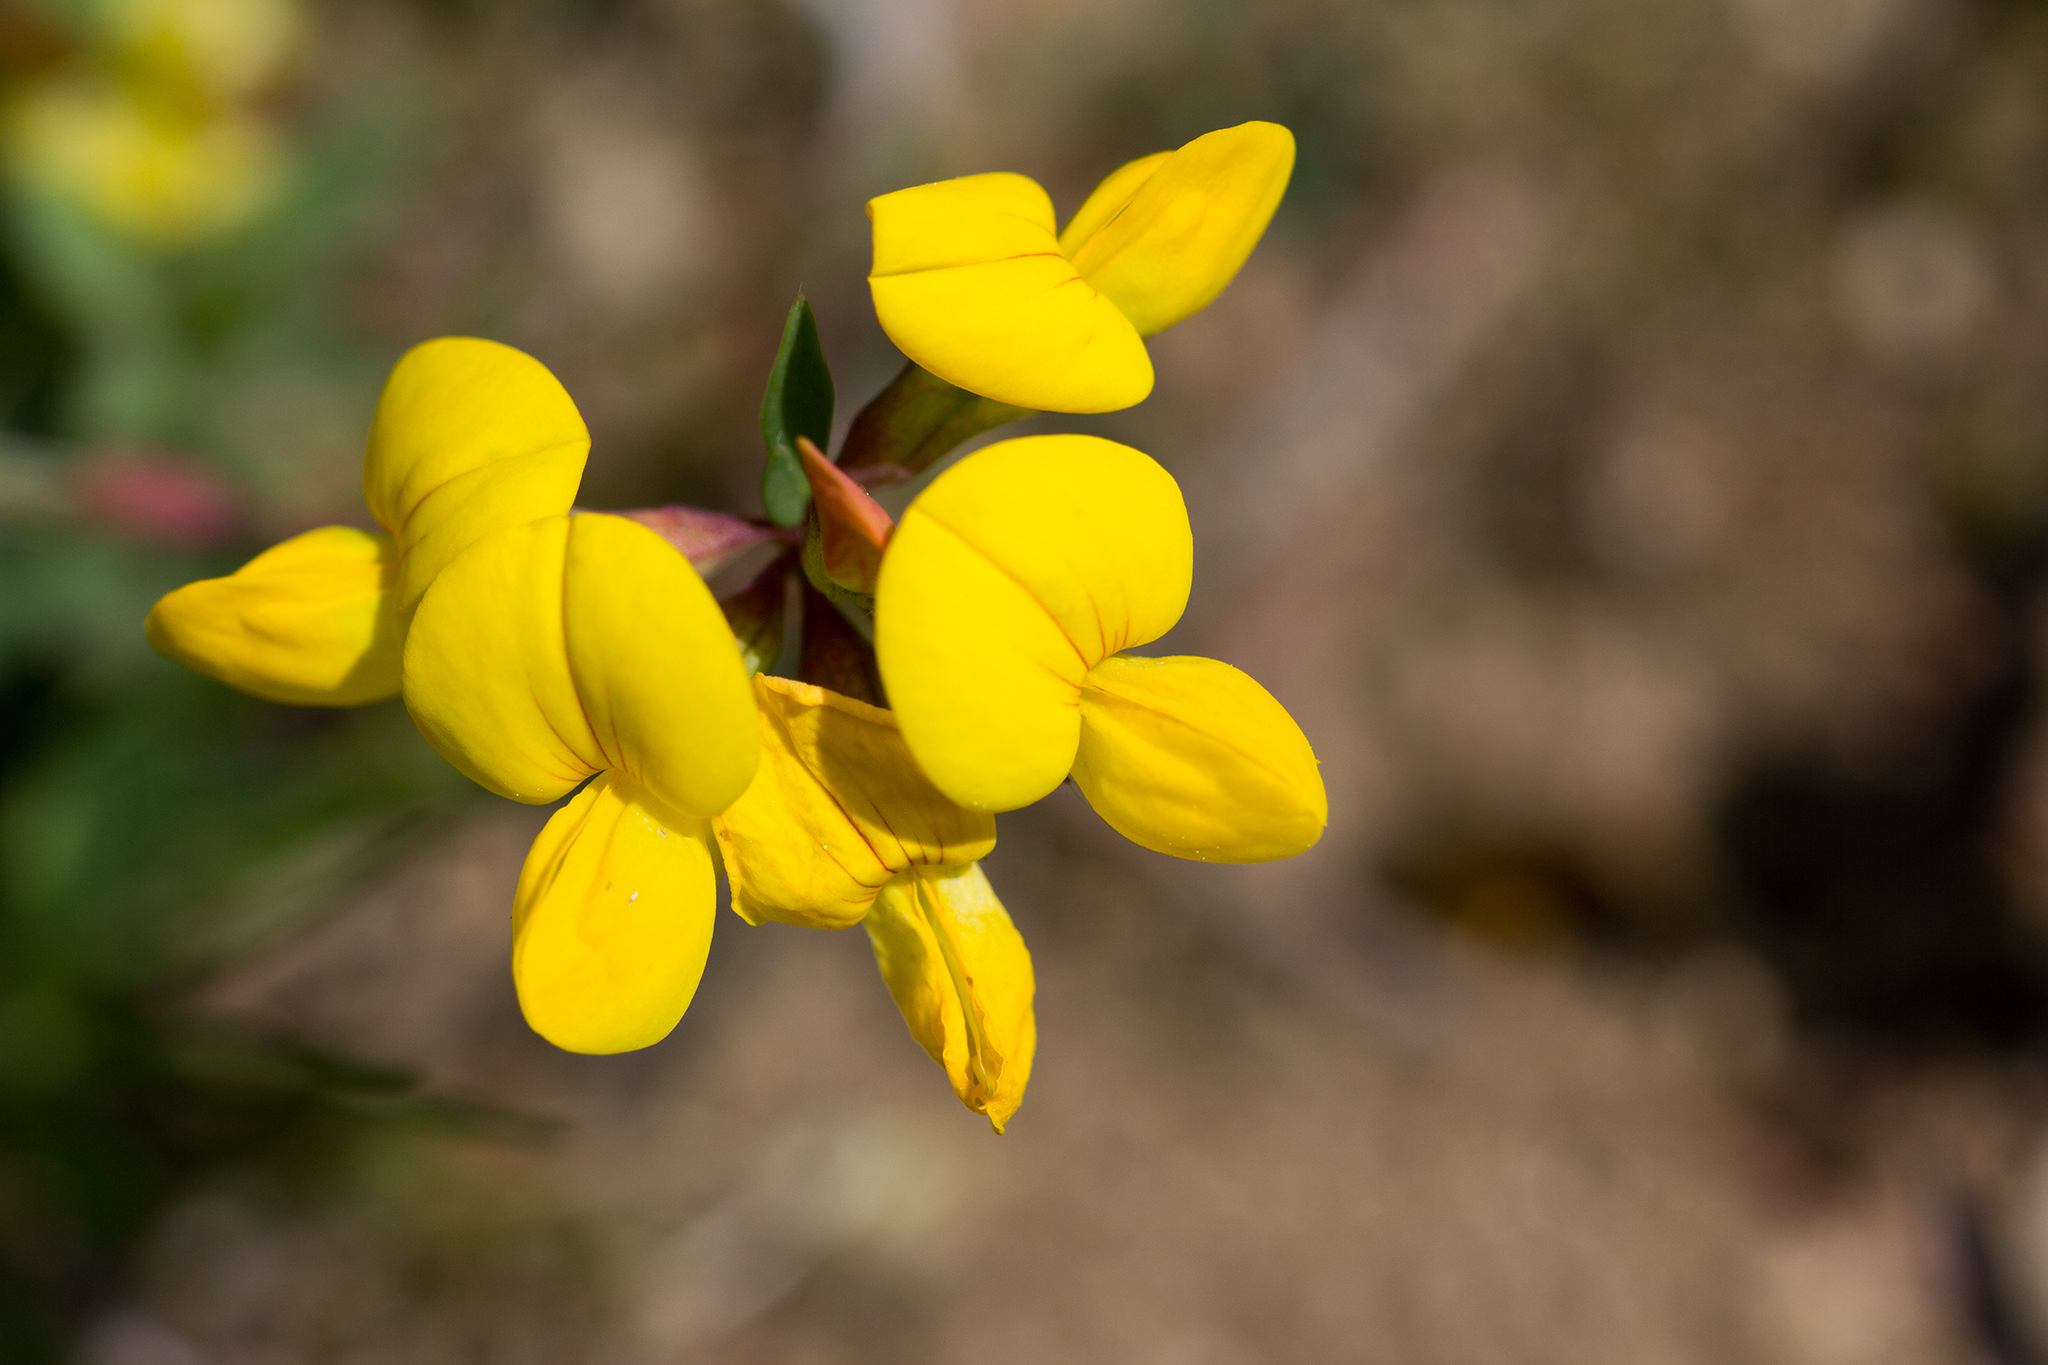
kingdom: Plantae
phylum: Tracheophyta
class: Magnoliopsida
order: Fabales
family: Fabaceae
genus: Lotus
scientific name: Lotus corniculatus
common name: Common bird's-foot-trefoil
